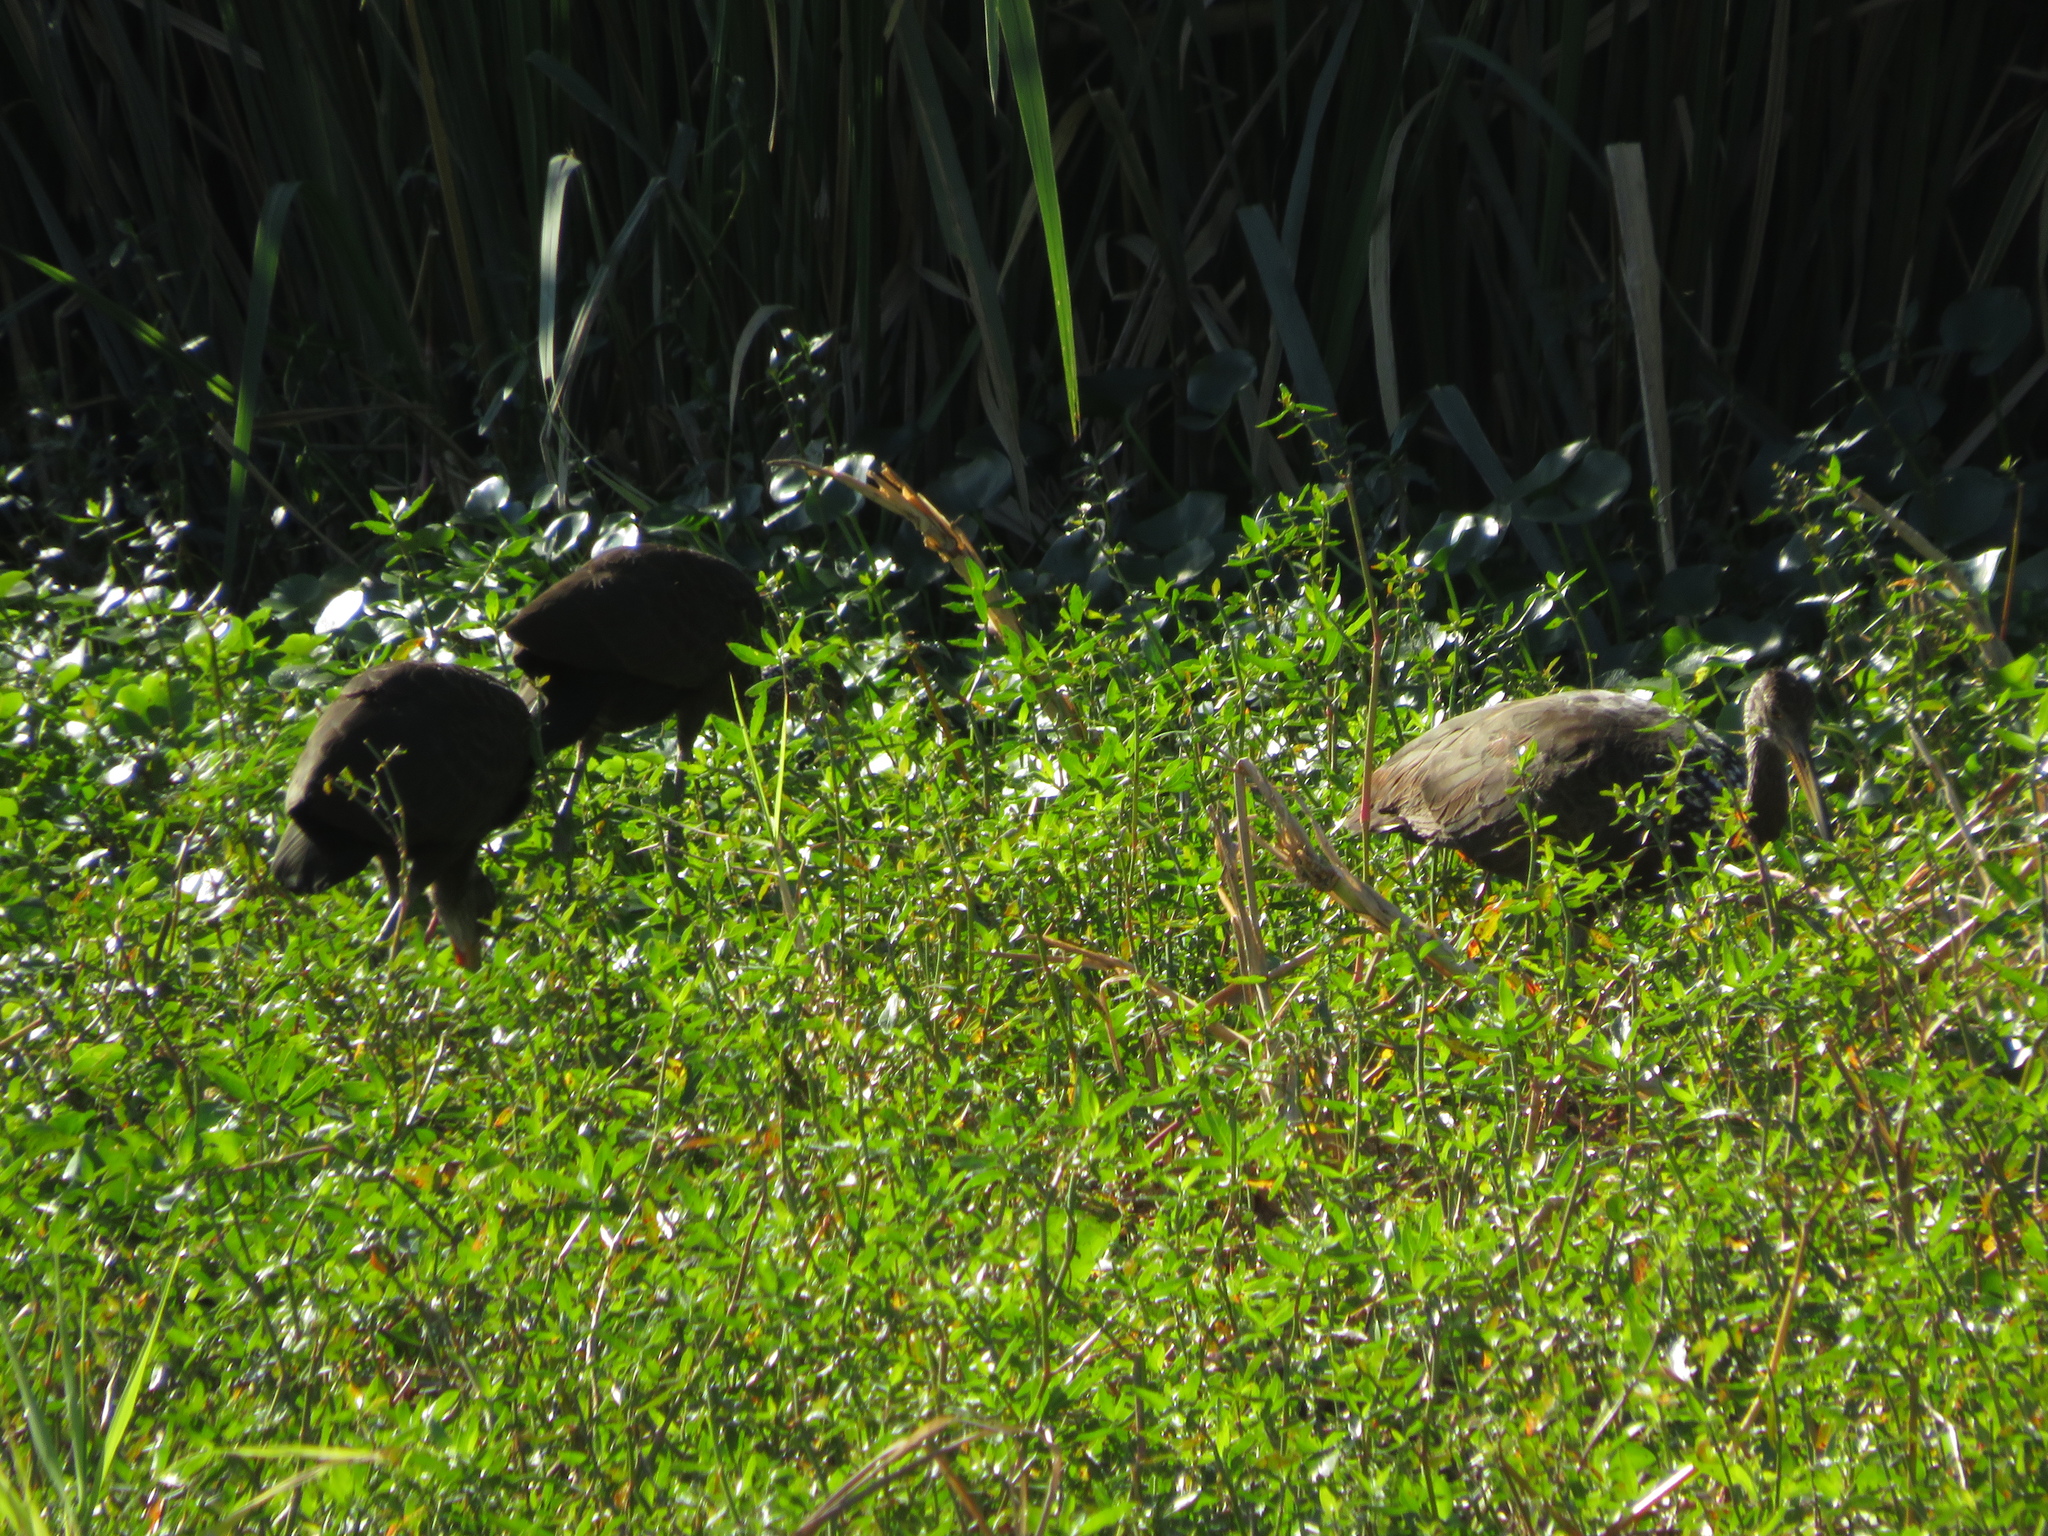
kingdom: Animalia
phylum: Chordata
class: Aves
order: Gruiformes
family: Aramidae
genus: Aramus
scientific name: Aramus guarauna
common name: Limpkin
